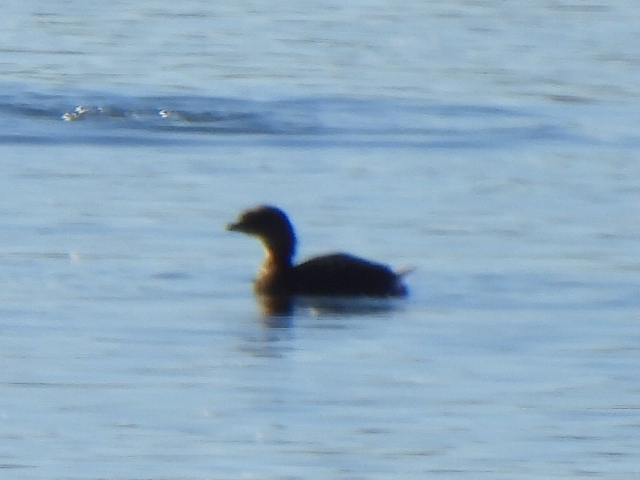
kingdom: Animalia
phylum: Chordata
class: Aves
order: Podicipediformes
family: Podicipedidae
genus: Podilymbus
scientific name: Podilymbus podiceps
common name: Pied-billed grebe
